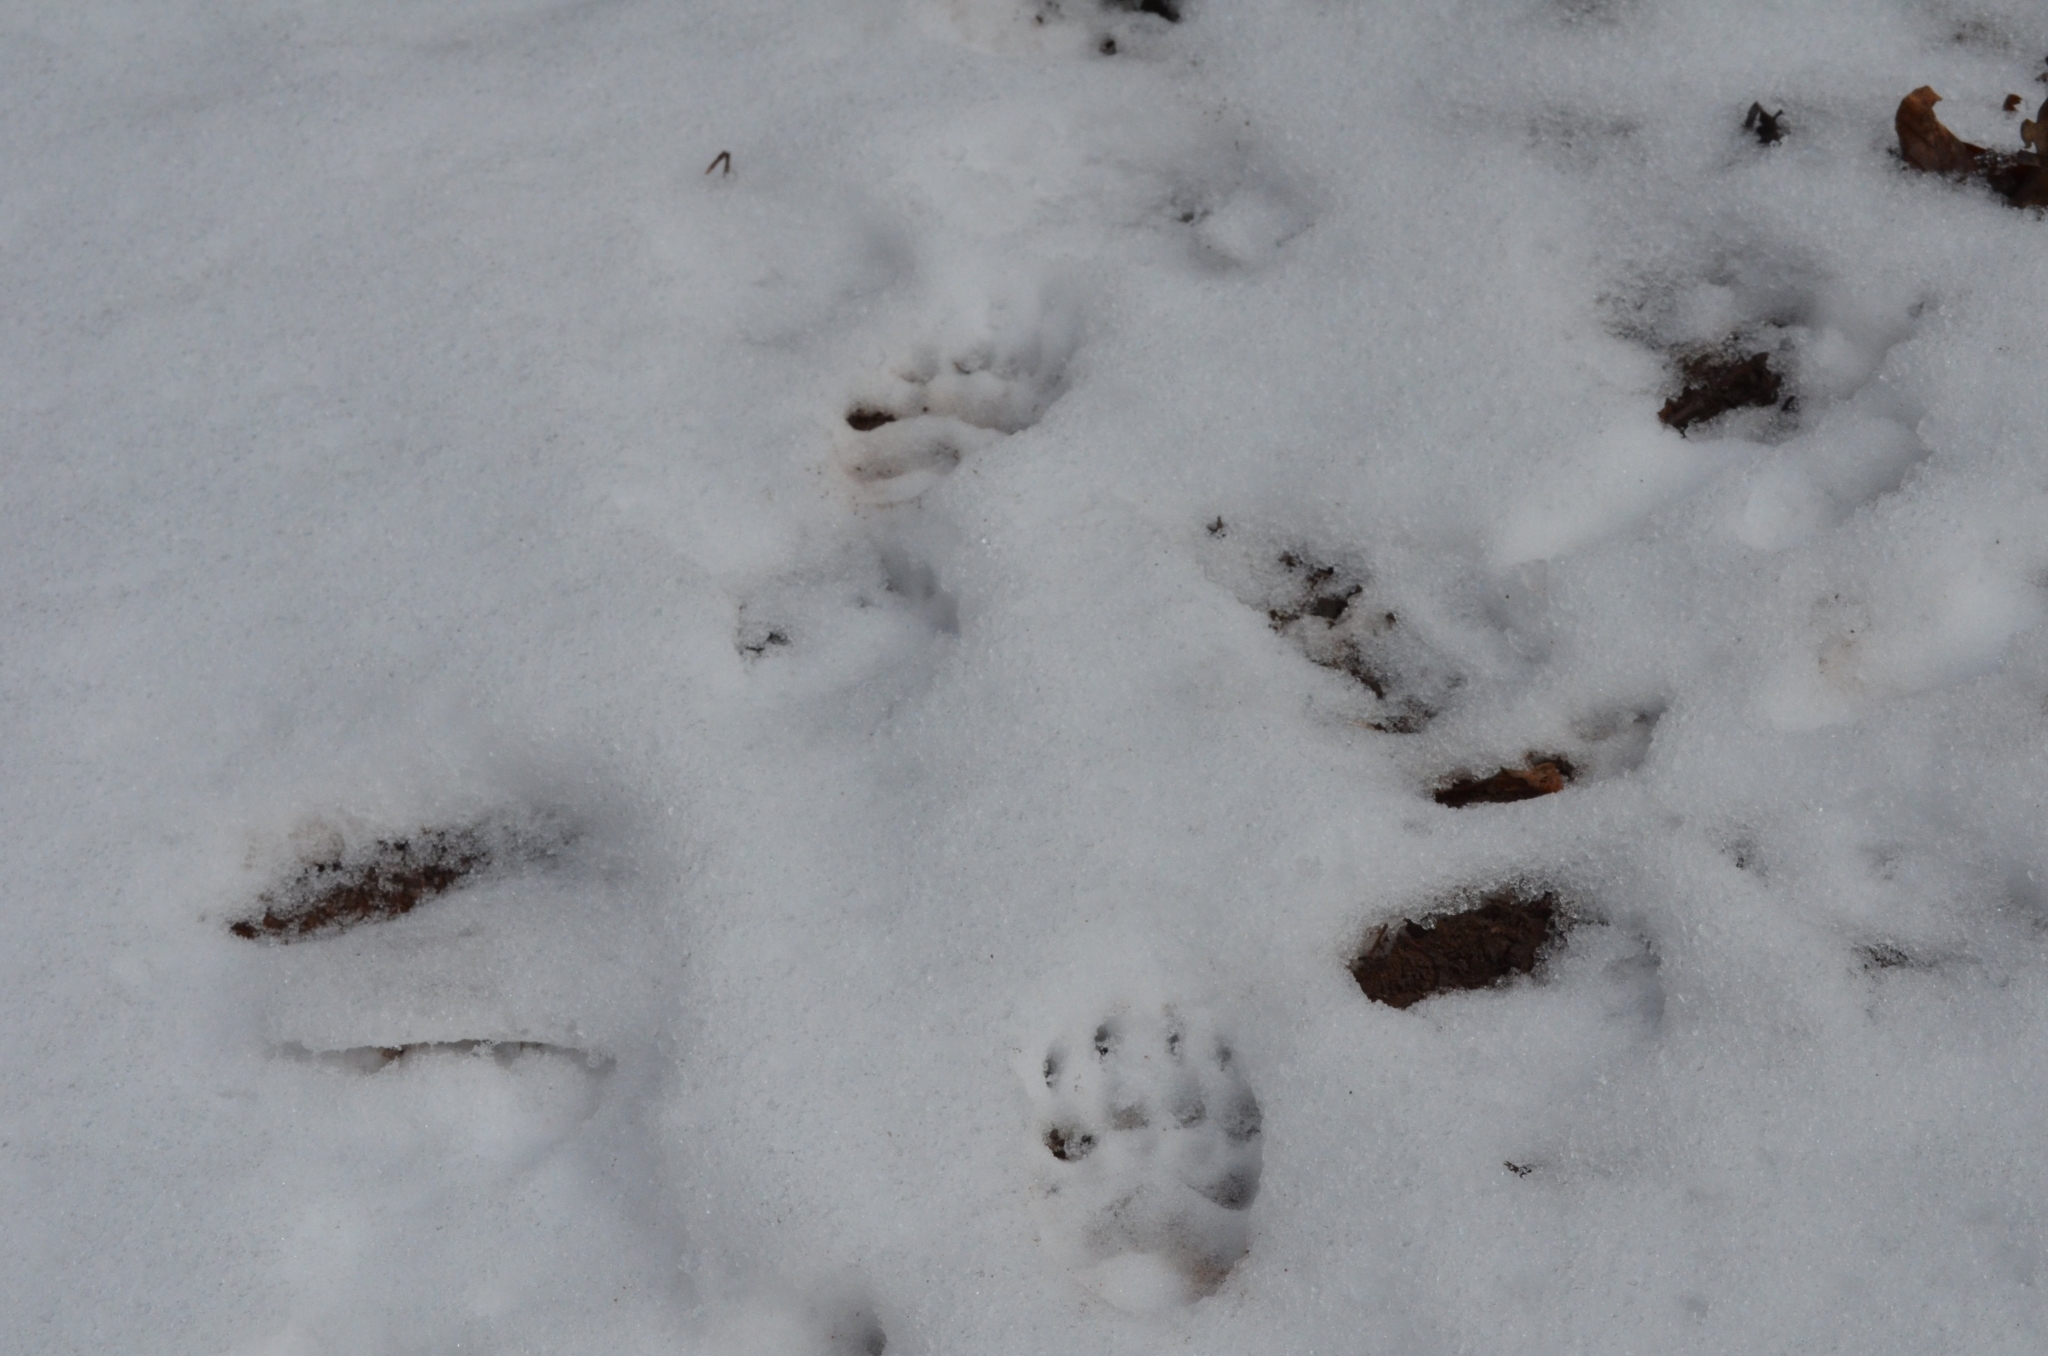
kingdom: Animalia
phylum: Chordata
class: Mammalia
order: Carnivora
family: Mustelidae
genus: Meles
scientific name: Meles meles
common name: Eurasian badger
